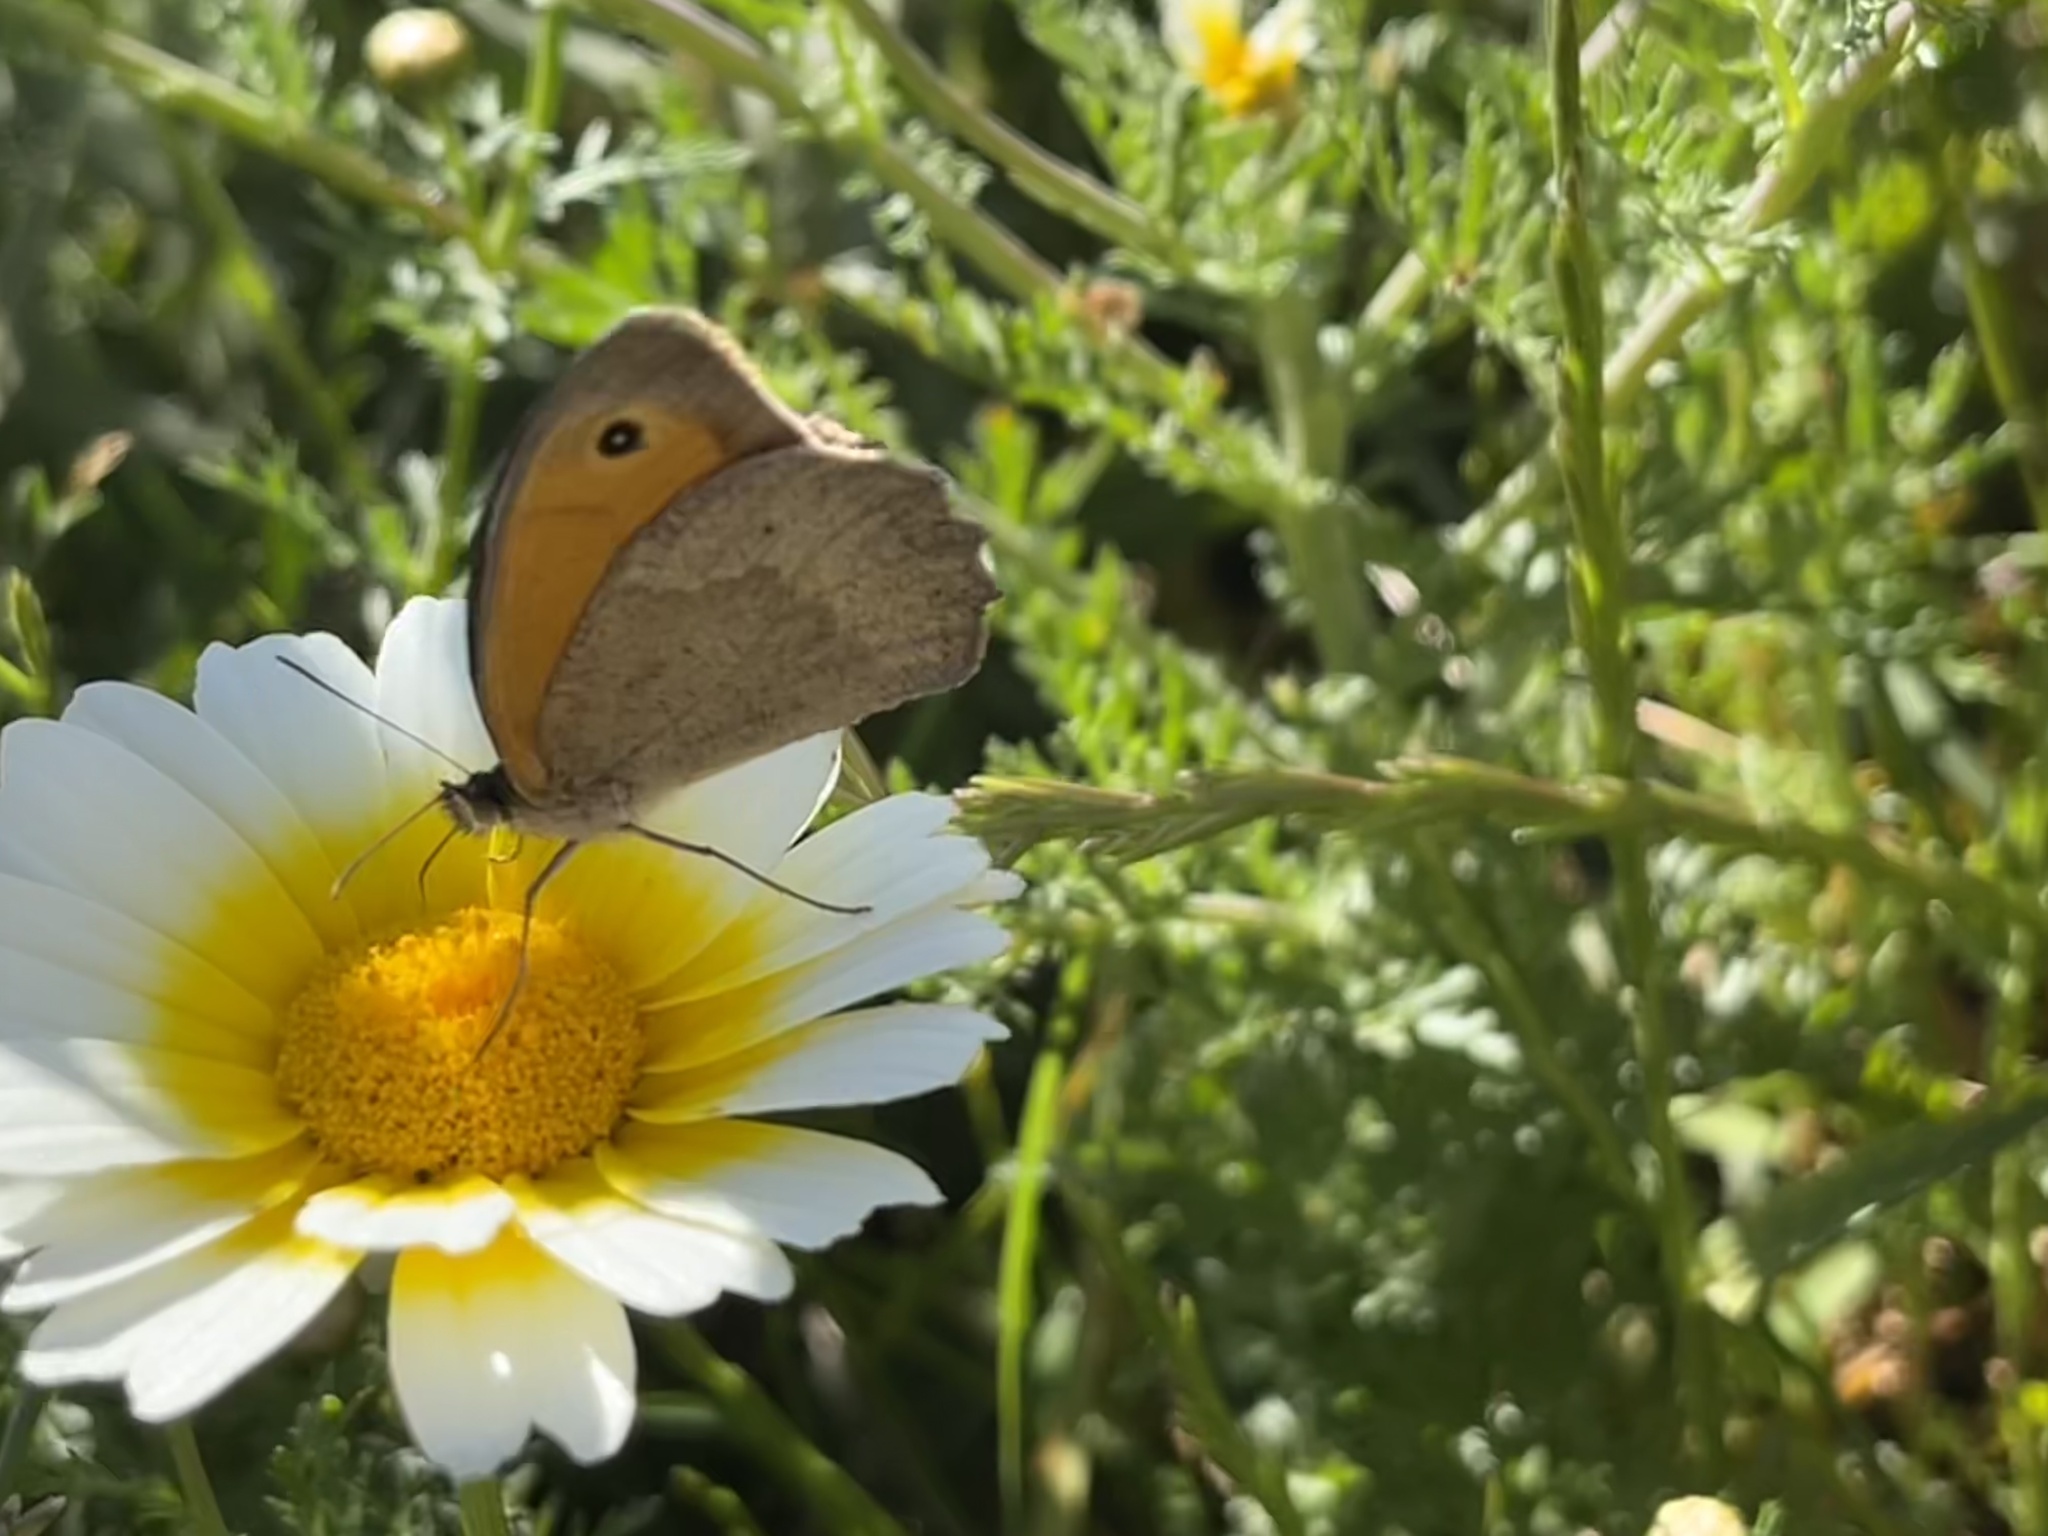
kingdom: Animalia
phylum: Arthropoda
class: Insecta
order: Lepidoptera
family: Nymphalidae
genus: Maniola
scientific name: Maniola jurtina
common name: Meadow brown
